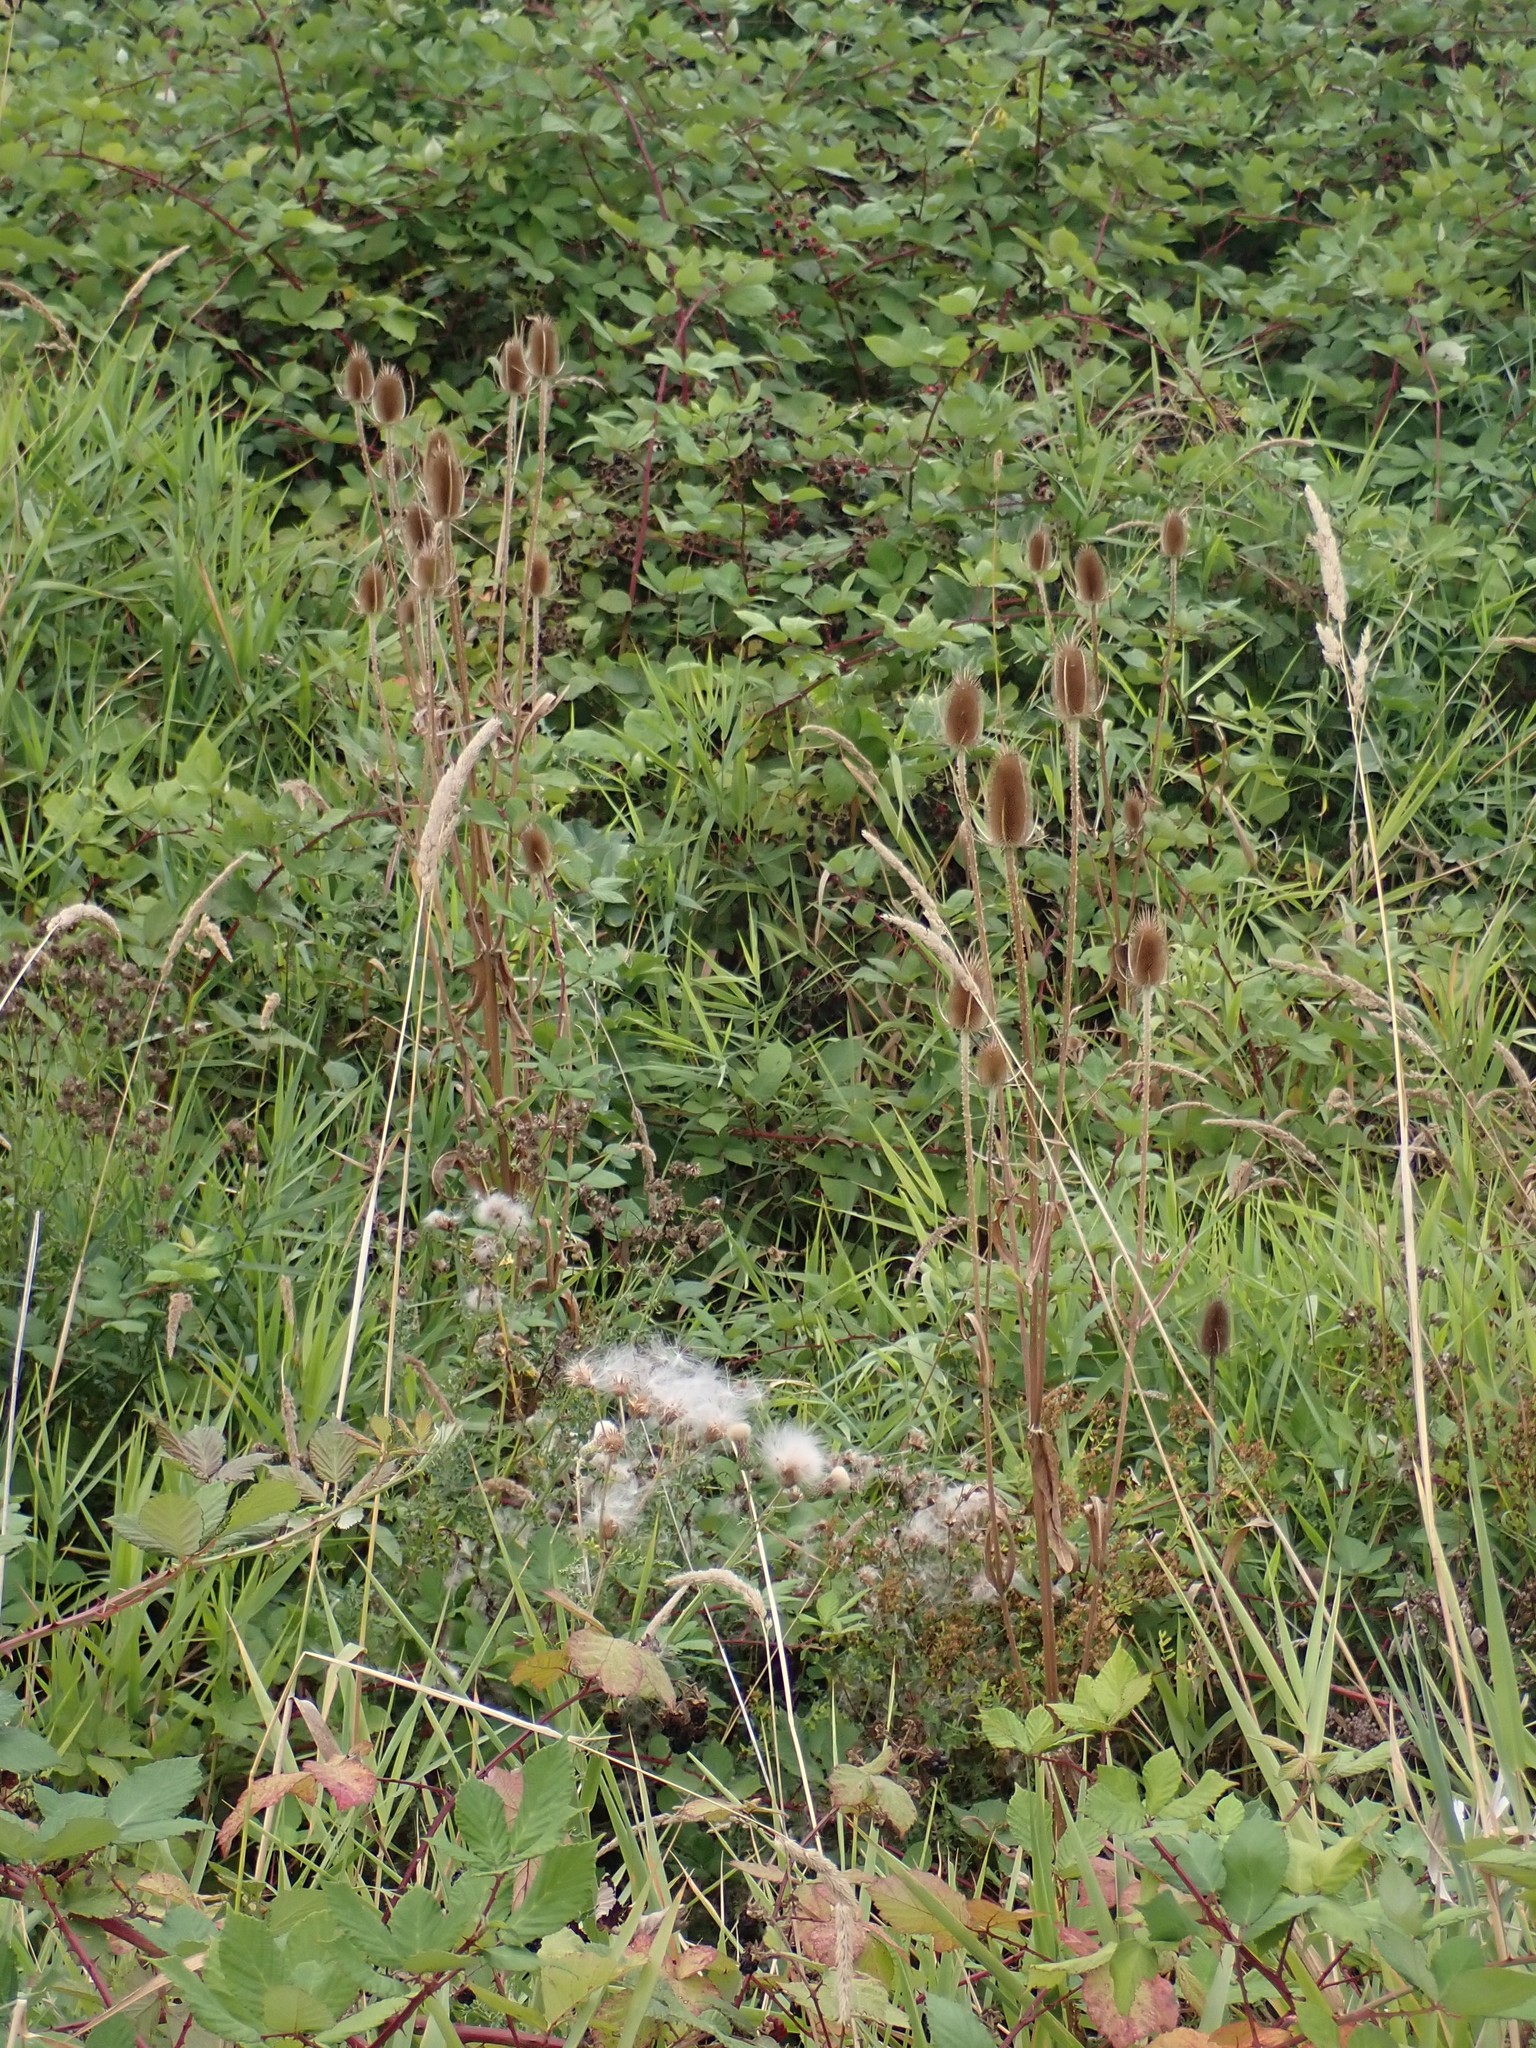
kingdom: Plantae
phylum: Tracheophyta
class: Magnoliopsida
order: Dipsacales
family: Caprifoliaceae
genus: Dipsacus
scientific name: Dipsacus fullonum
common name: Teasel
